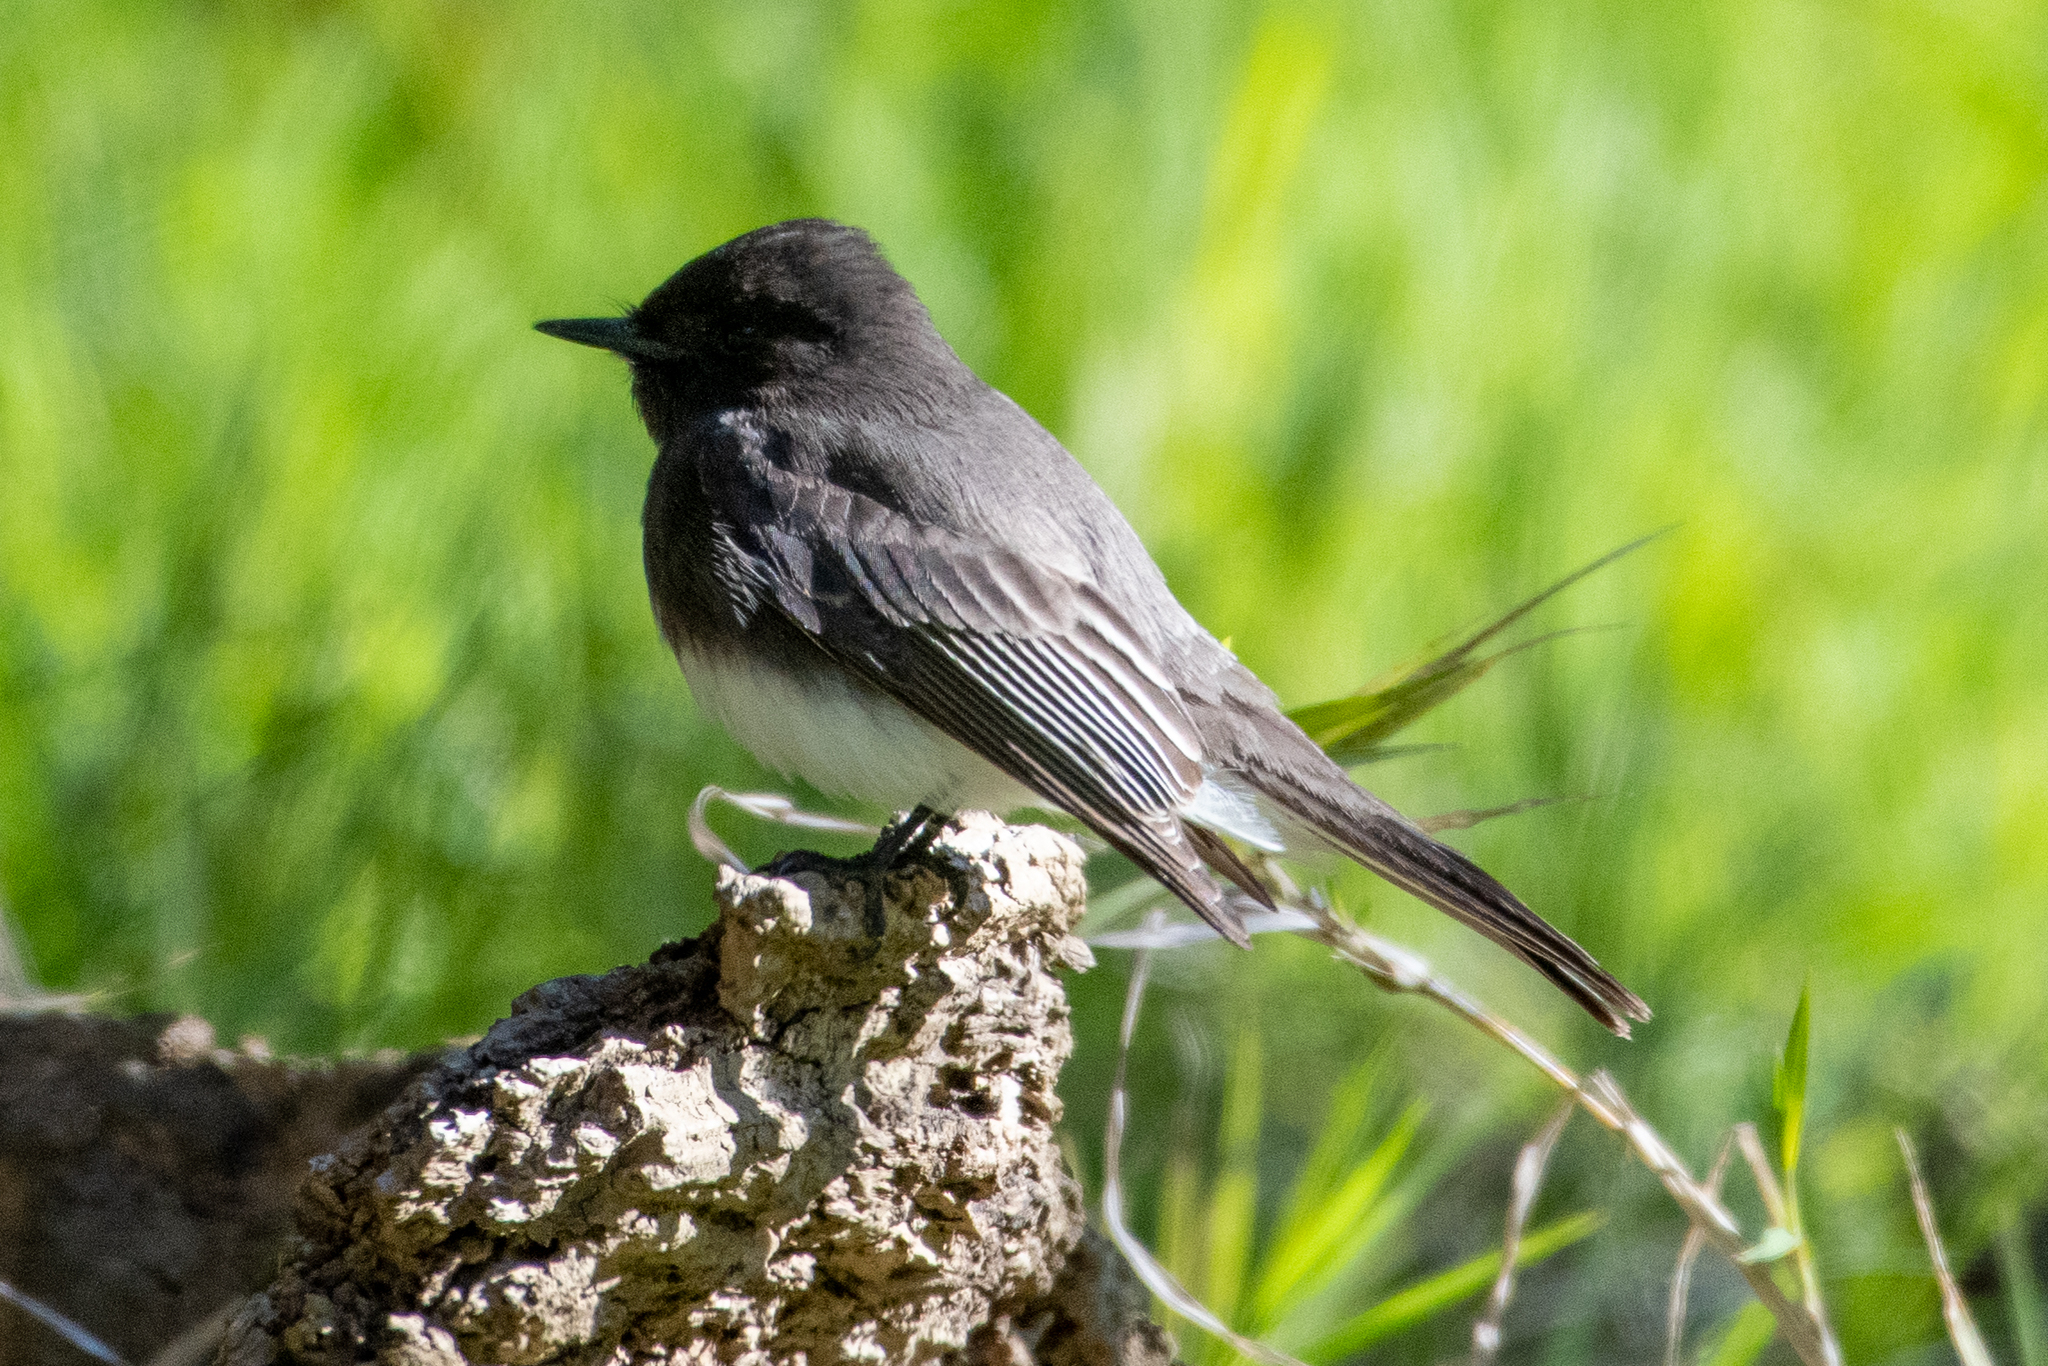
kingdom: Animalia
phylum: Chordata
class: Aves
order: Passeriformes
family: Tyrannidae
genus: Sayornis
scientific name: Sayornis nigricans
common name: Black phoebe
